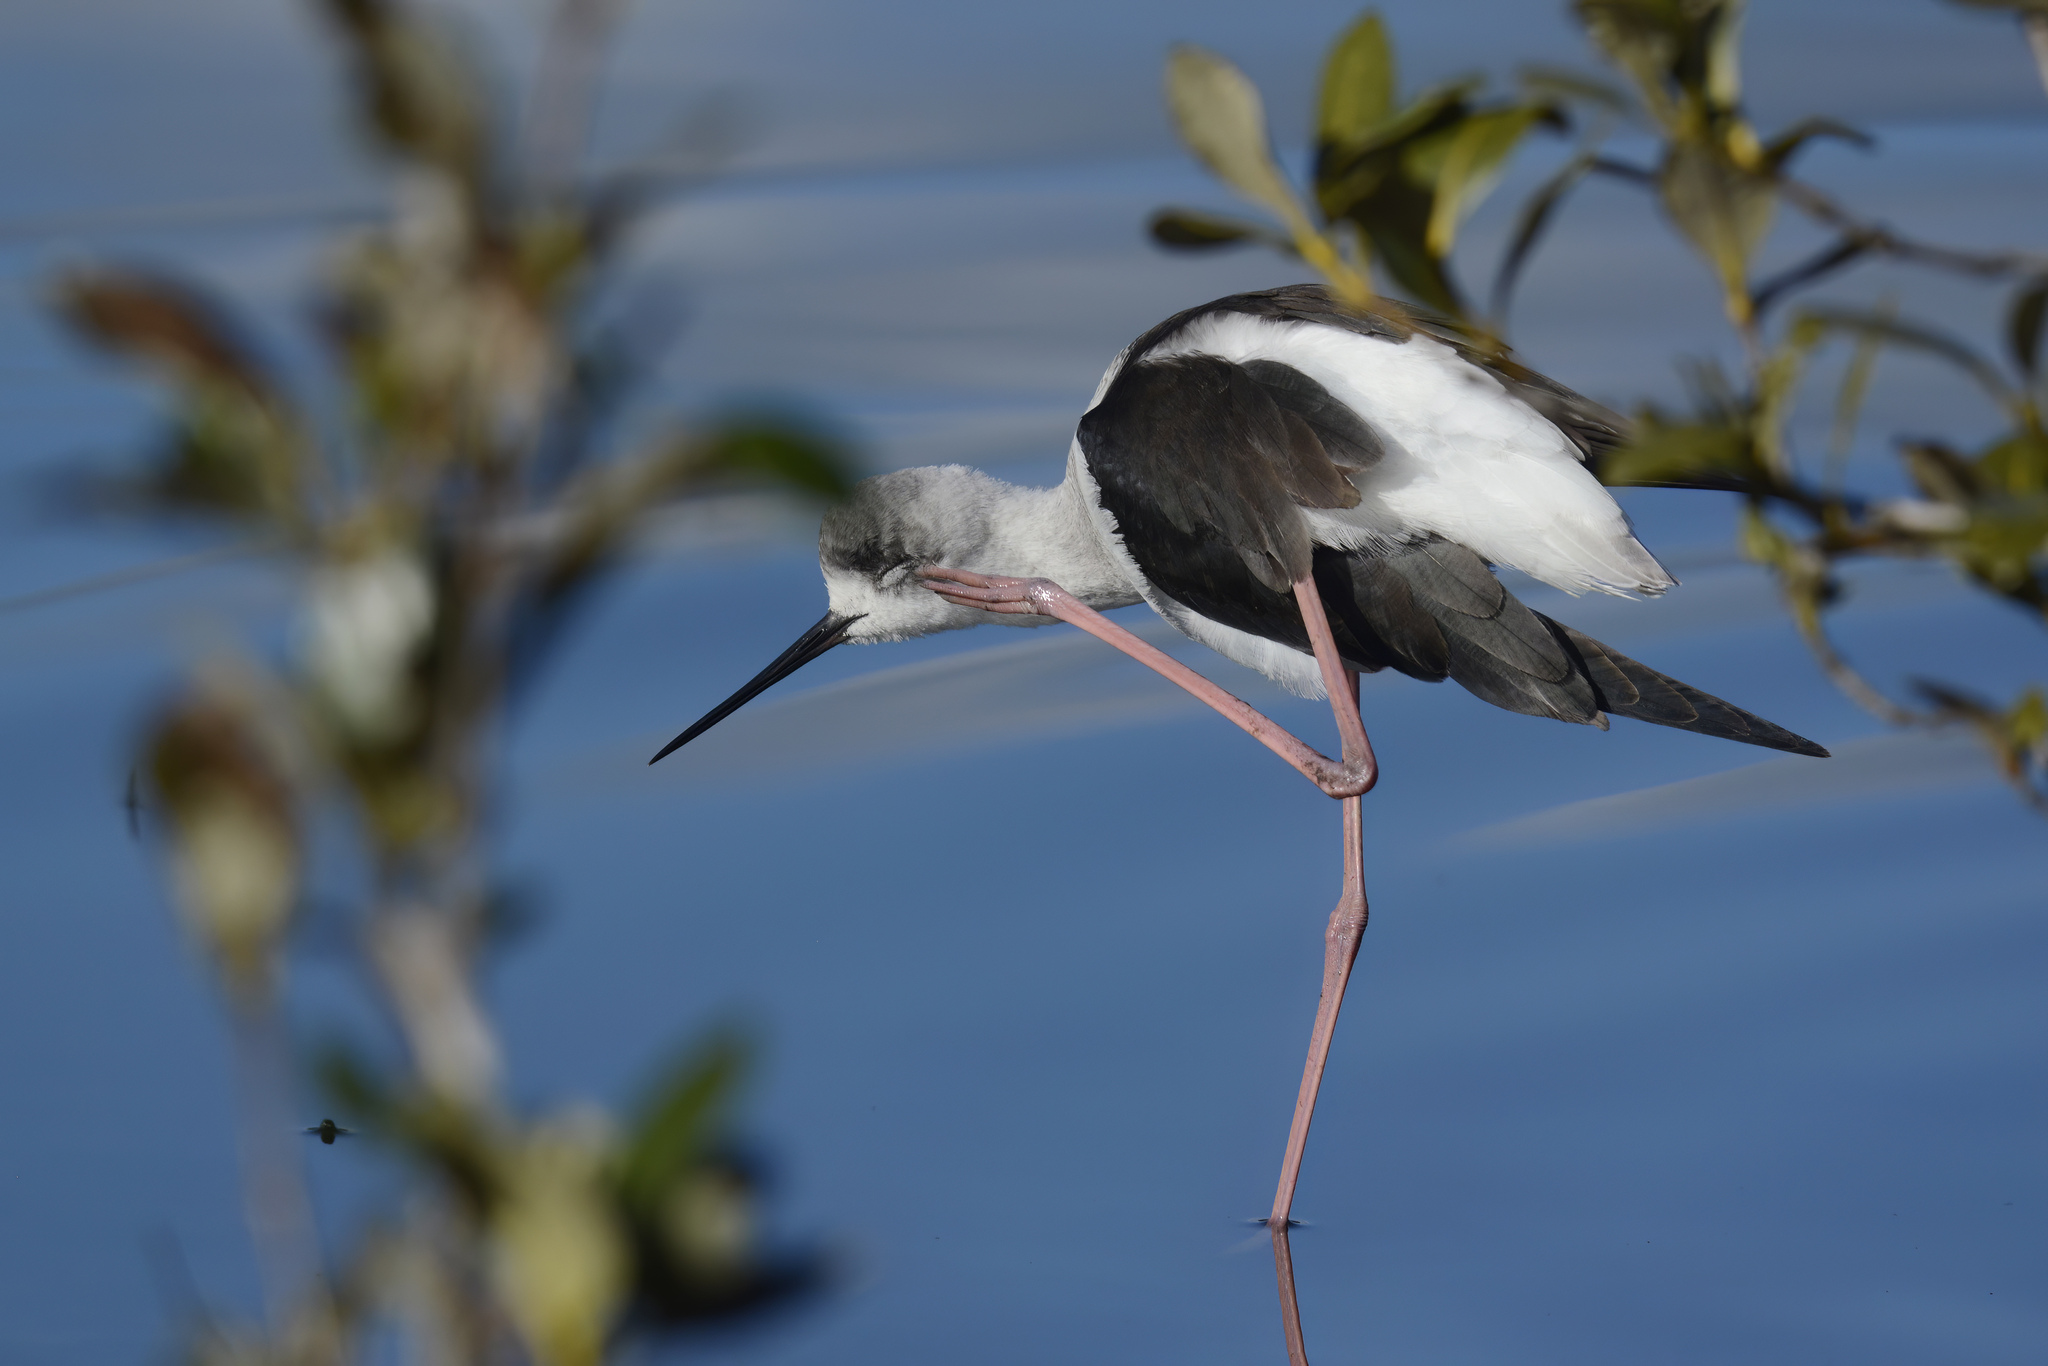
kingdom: Animalia
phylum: Chordata
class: Aves
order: Charadriiformes
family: Recurvirostridae
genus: Himantopus
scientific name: Himantopus leucocephalus
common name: White-headed stilt
